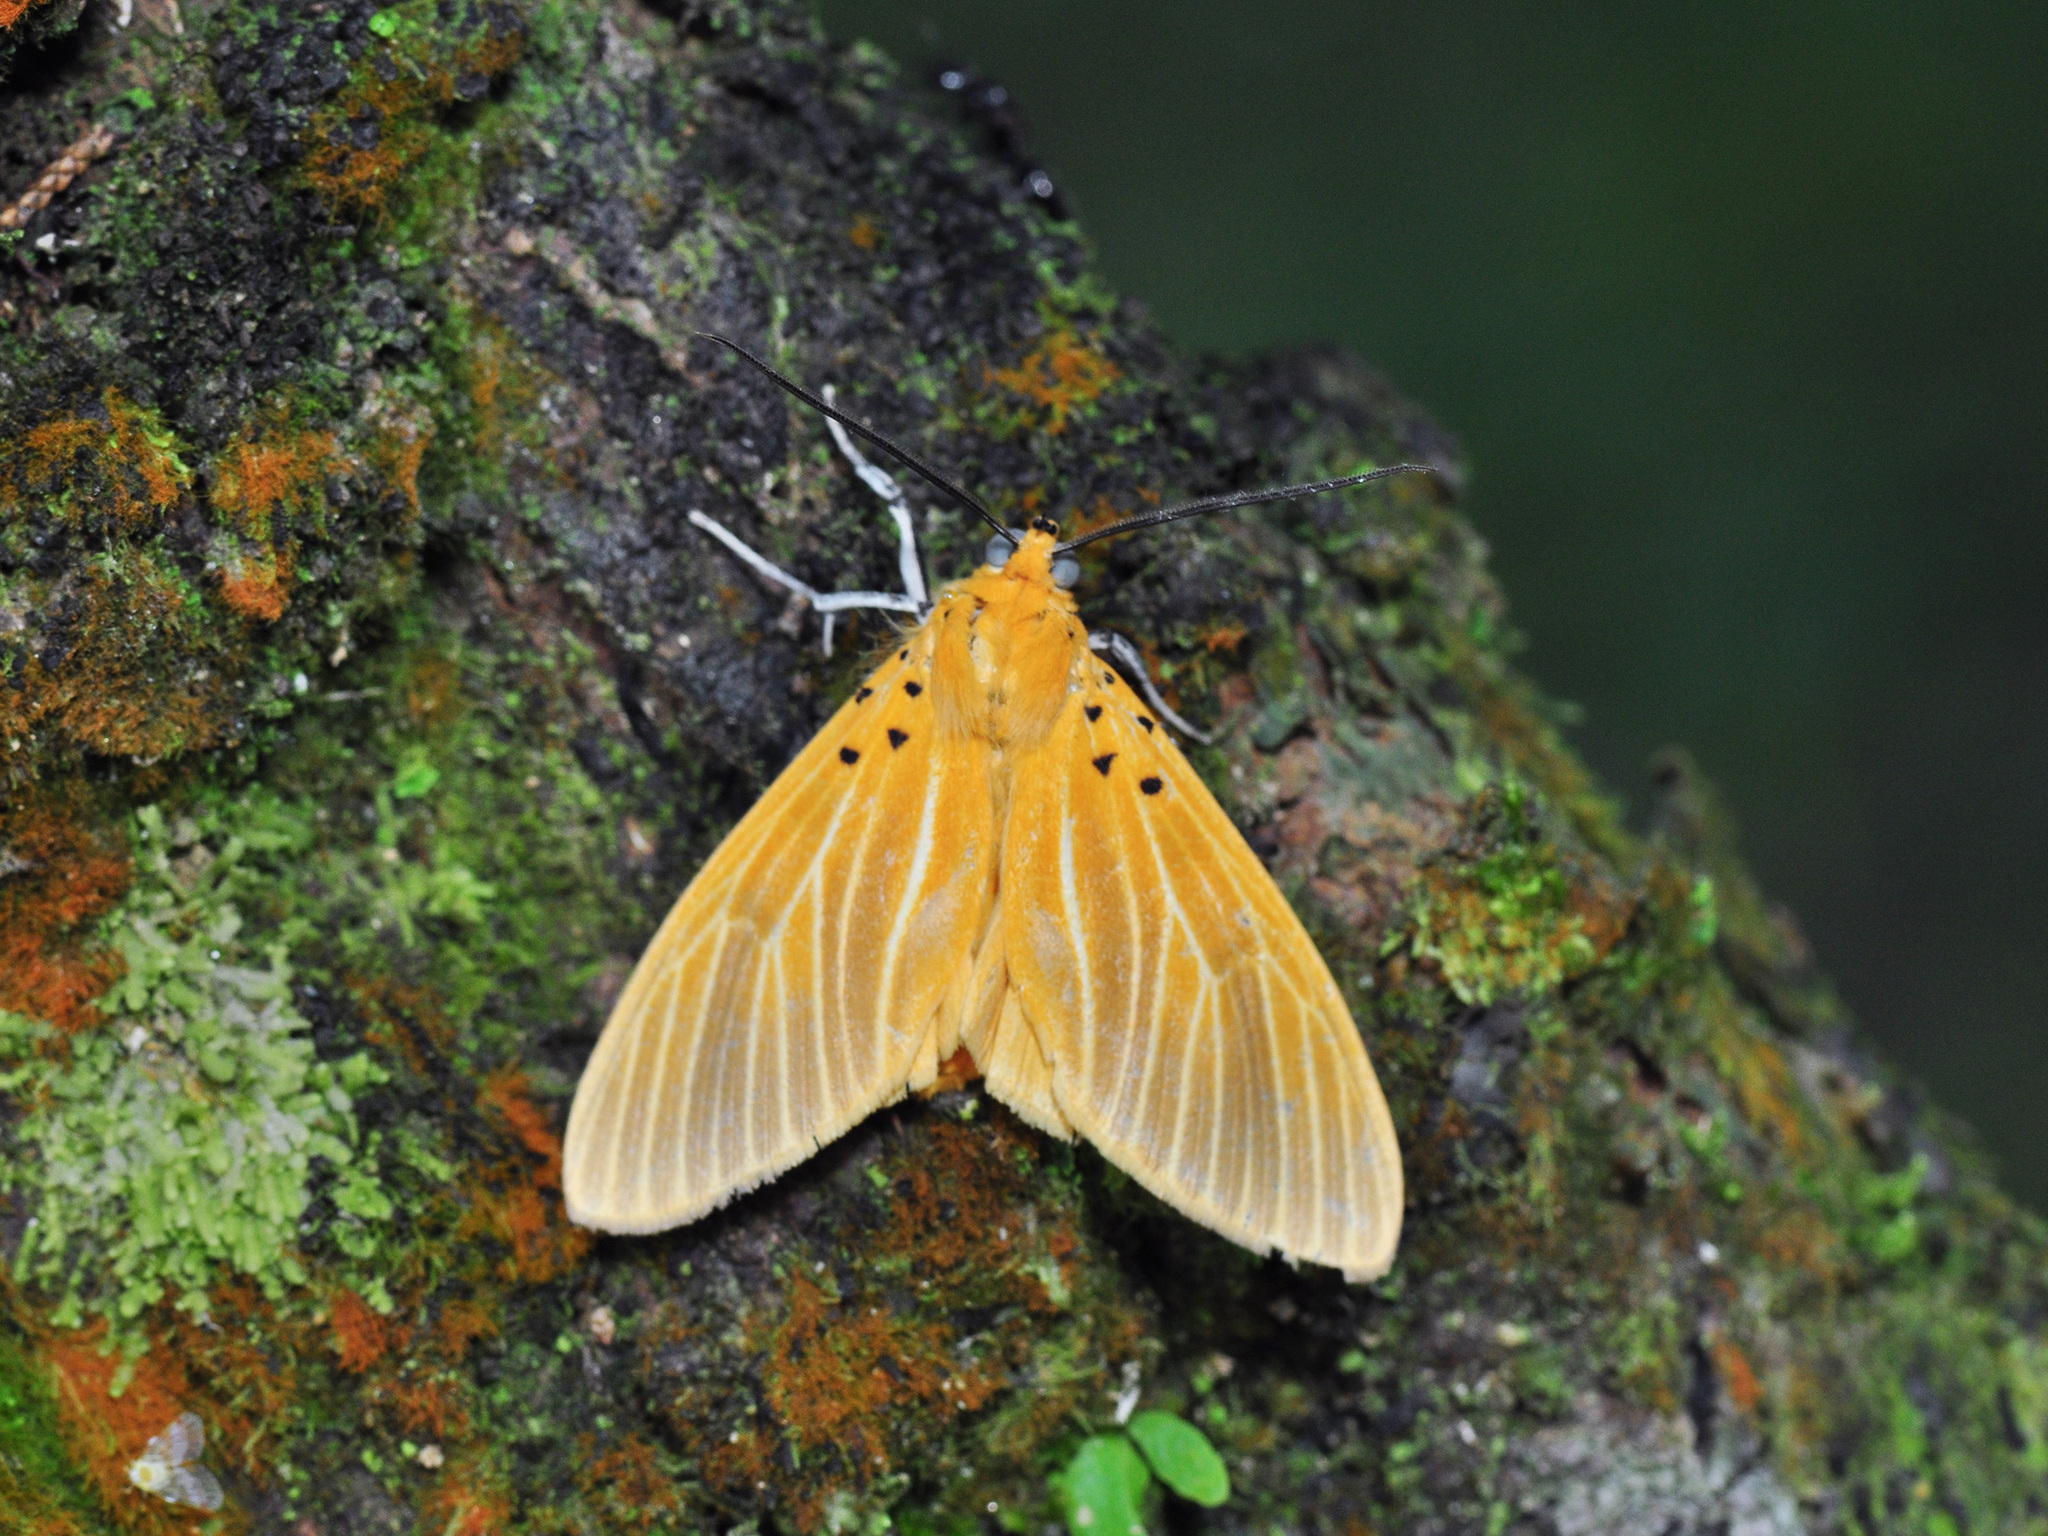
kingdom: Animalia
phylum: Arthropoda
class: Insecta
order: Lepidoptera
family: Erebidae
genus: Asota
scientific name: Asota egens
